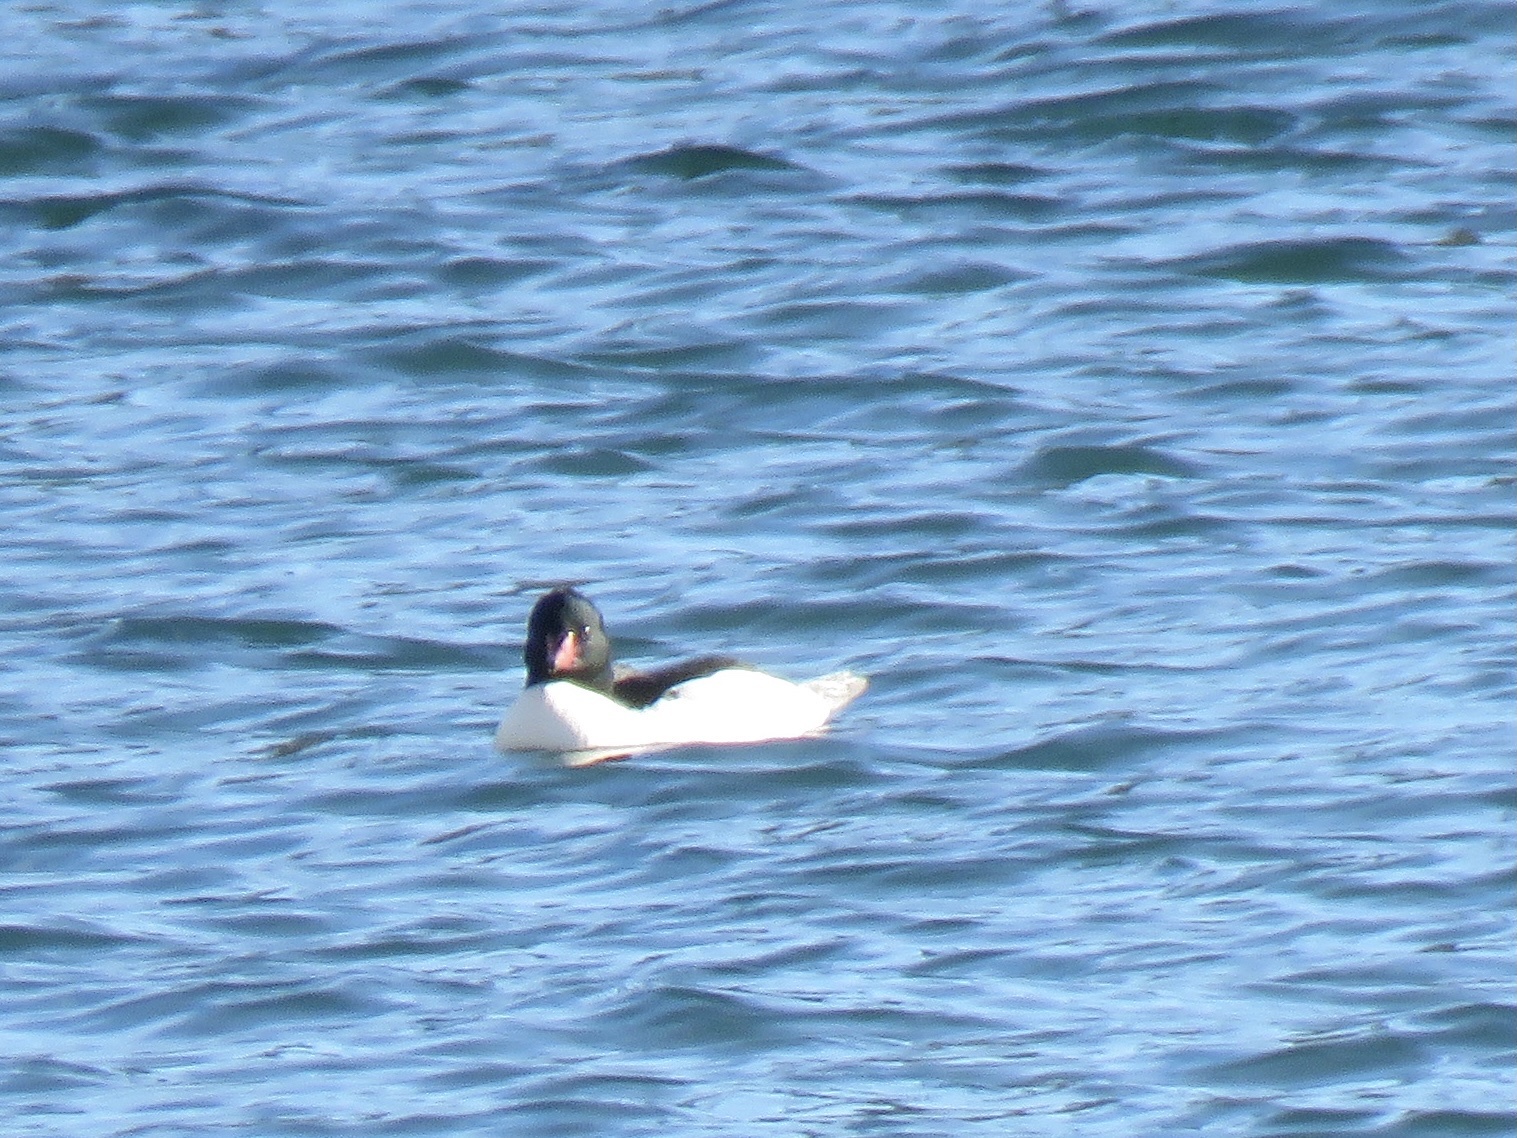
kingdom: Animalia
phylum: Chordata
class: Aves
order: Anseriformes
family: Anatidae
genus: Mergus
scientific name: Mergus merganser
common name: Common merganser
